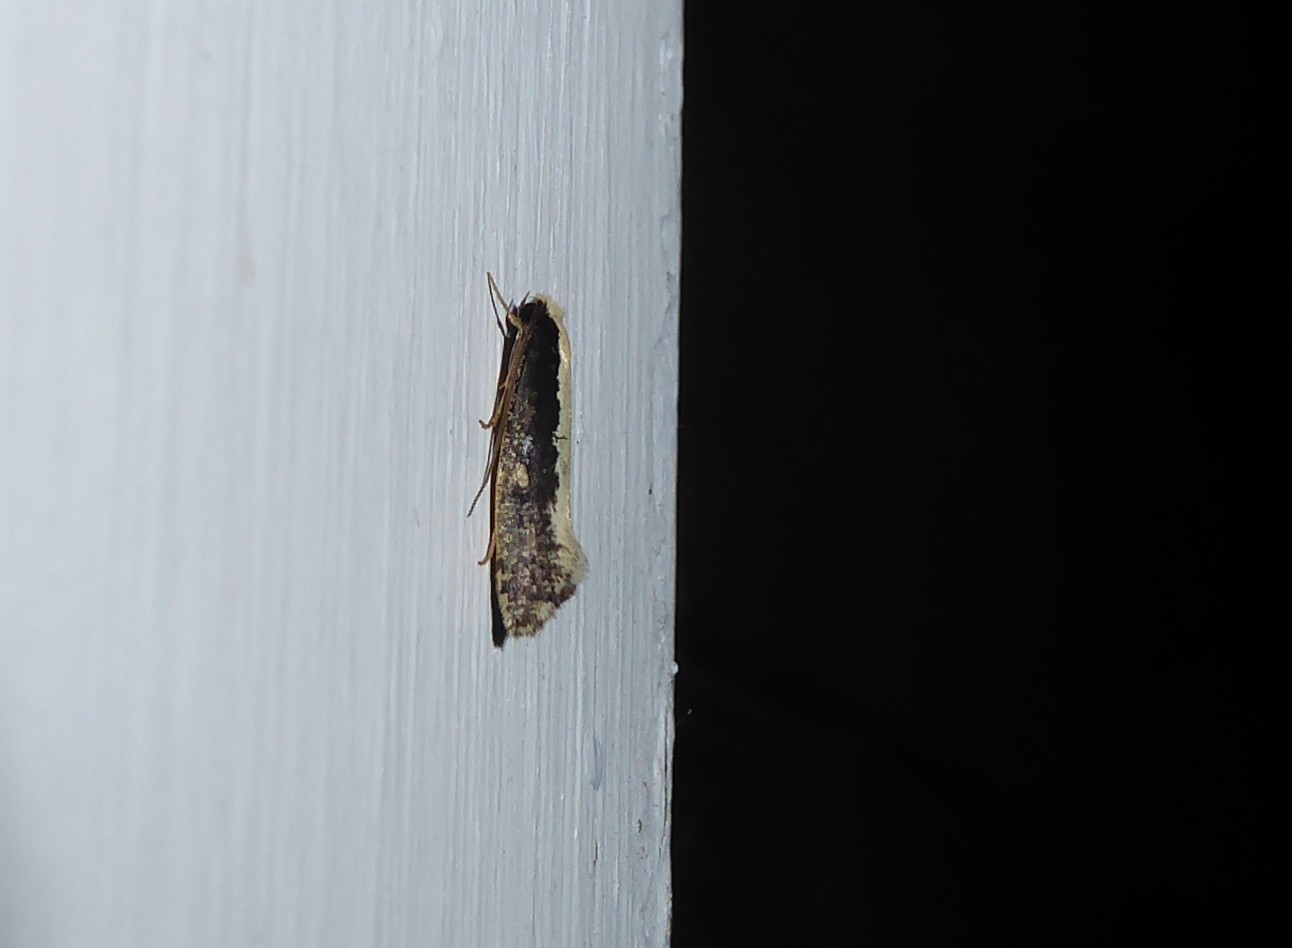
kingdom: Animalia
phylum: Arthropoda
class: Insecta
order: Lepidoptera
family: Tineidae
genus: Monopis
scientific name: Monopis ethelella
